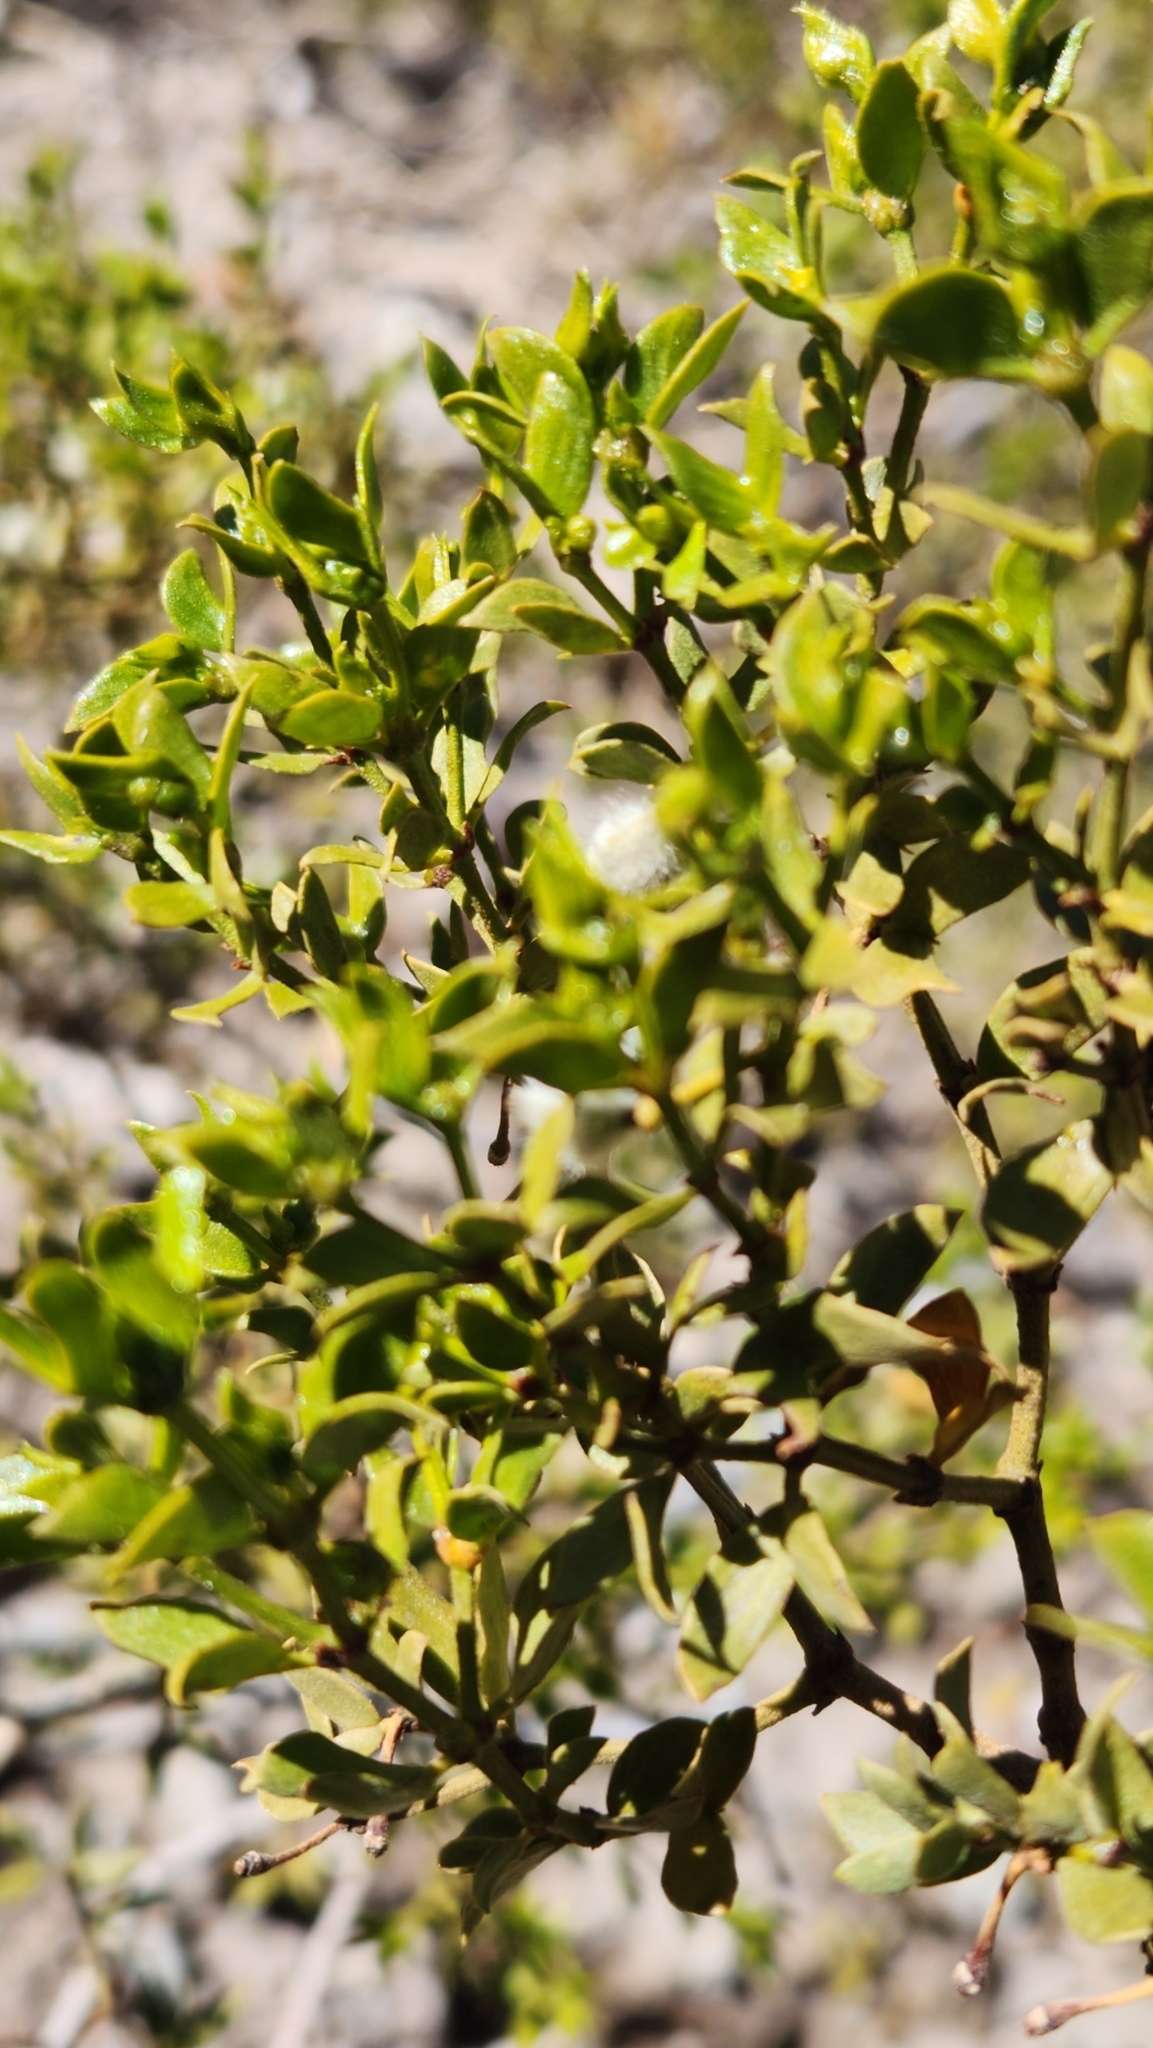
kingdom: Plantae
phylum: Tracheophyta
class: Magnoliopsida
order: Zygophyllales
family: Zygophyllaceae
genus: Larrea
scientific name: Larrea tridentata
